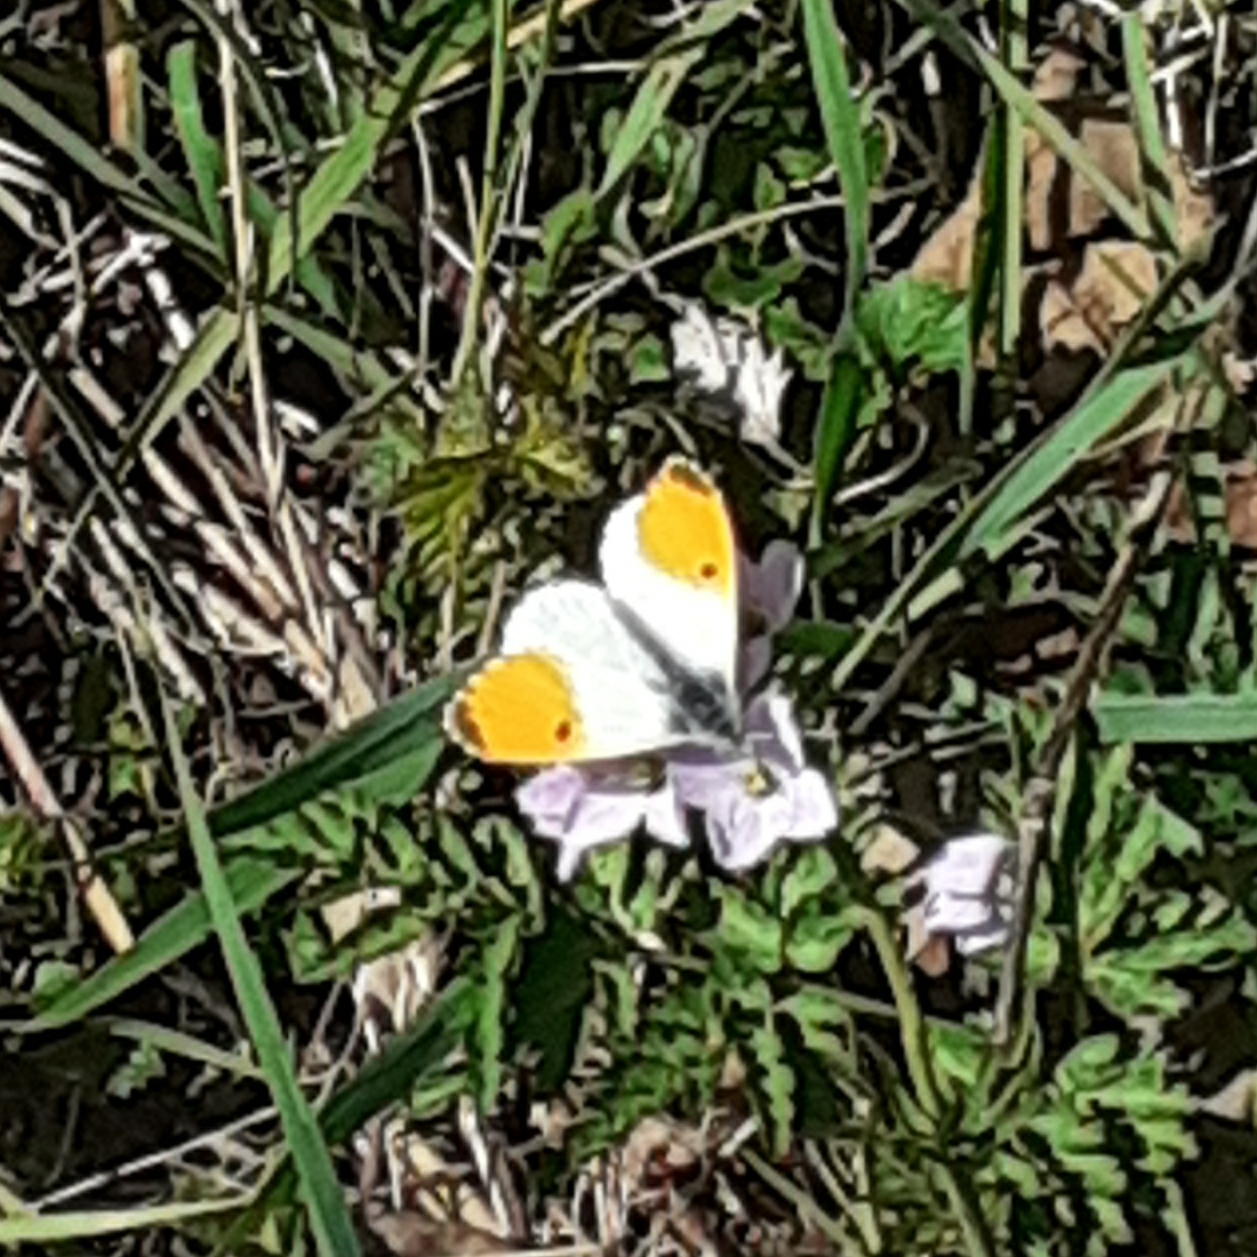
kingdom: Animalia
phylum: Arthropoda
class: Insecta
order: Lepidoptera
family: Pieridae
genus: Anthocharis
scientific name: Anthocharis cardamines
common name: Orange-tip
